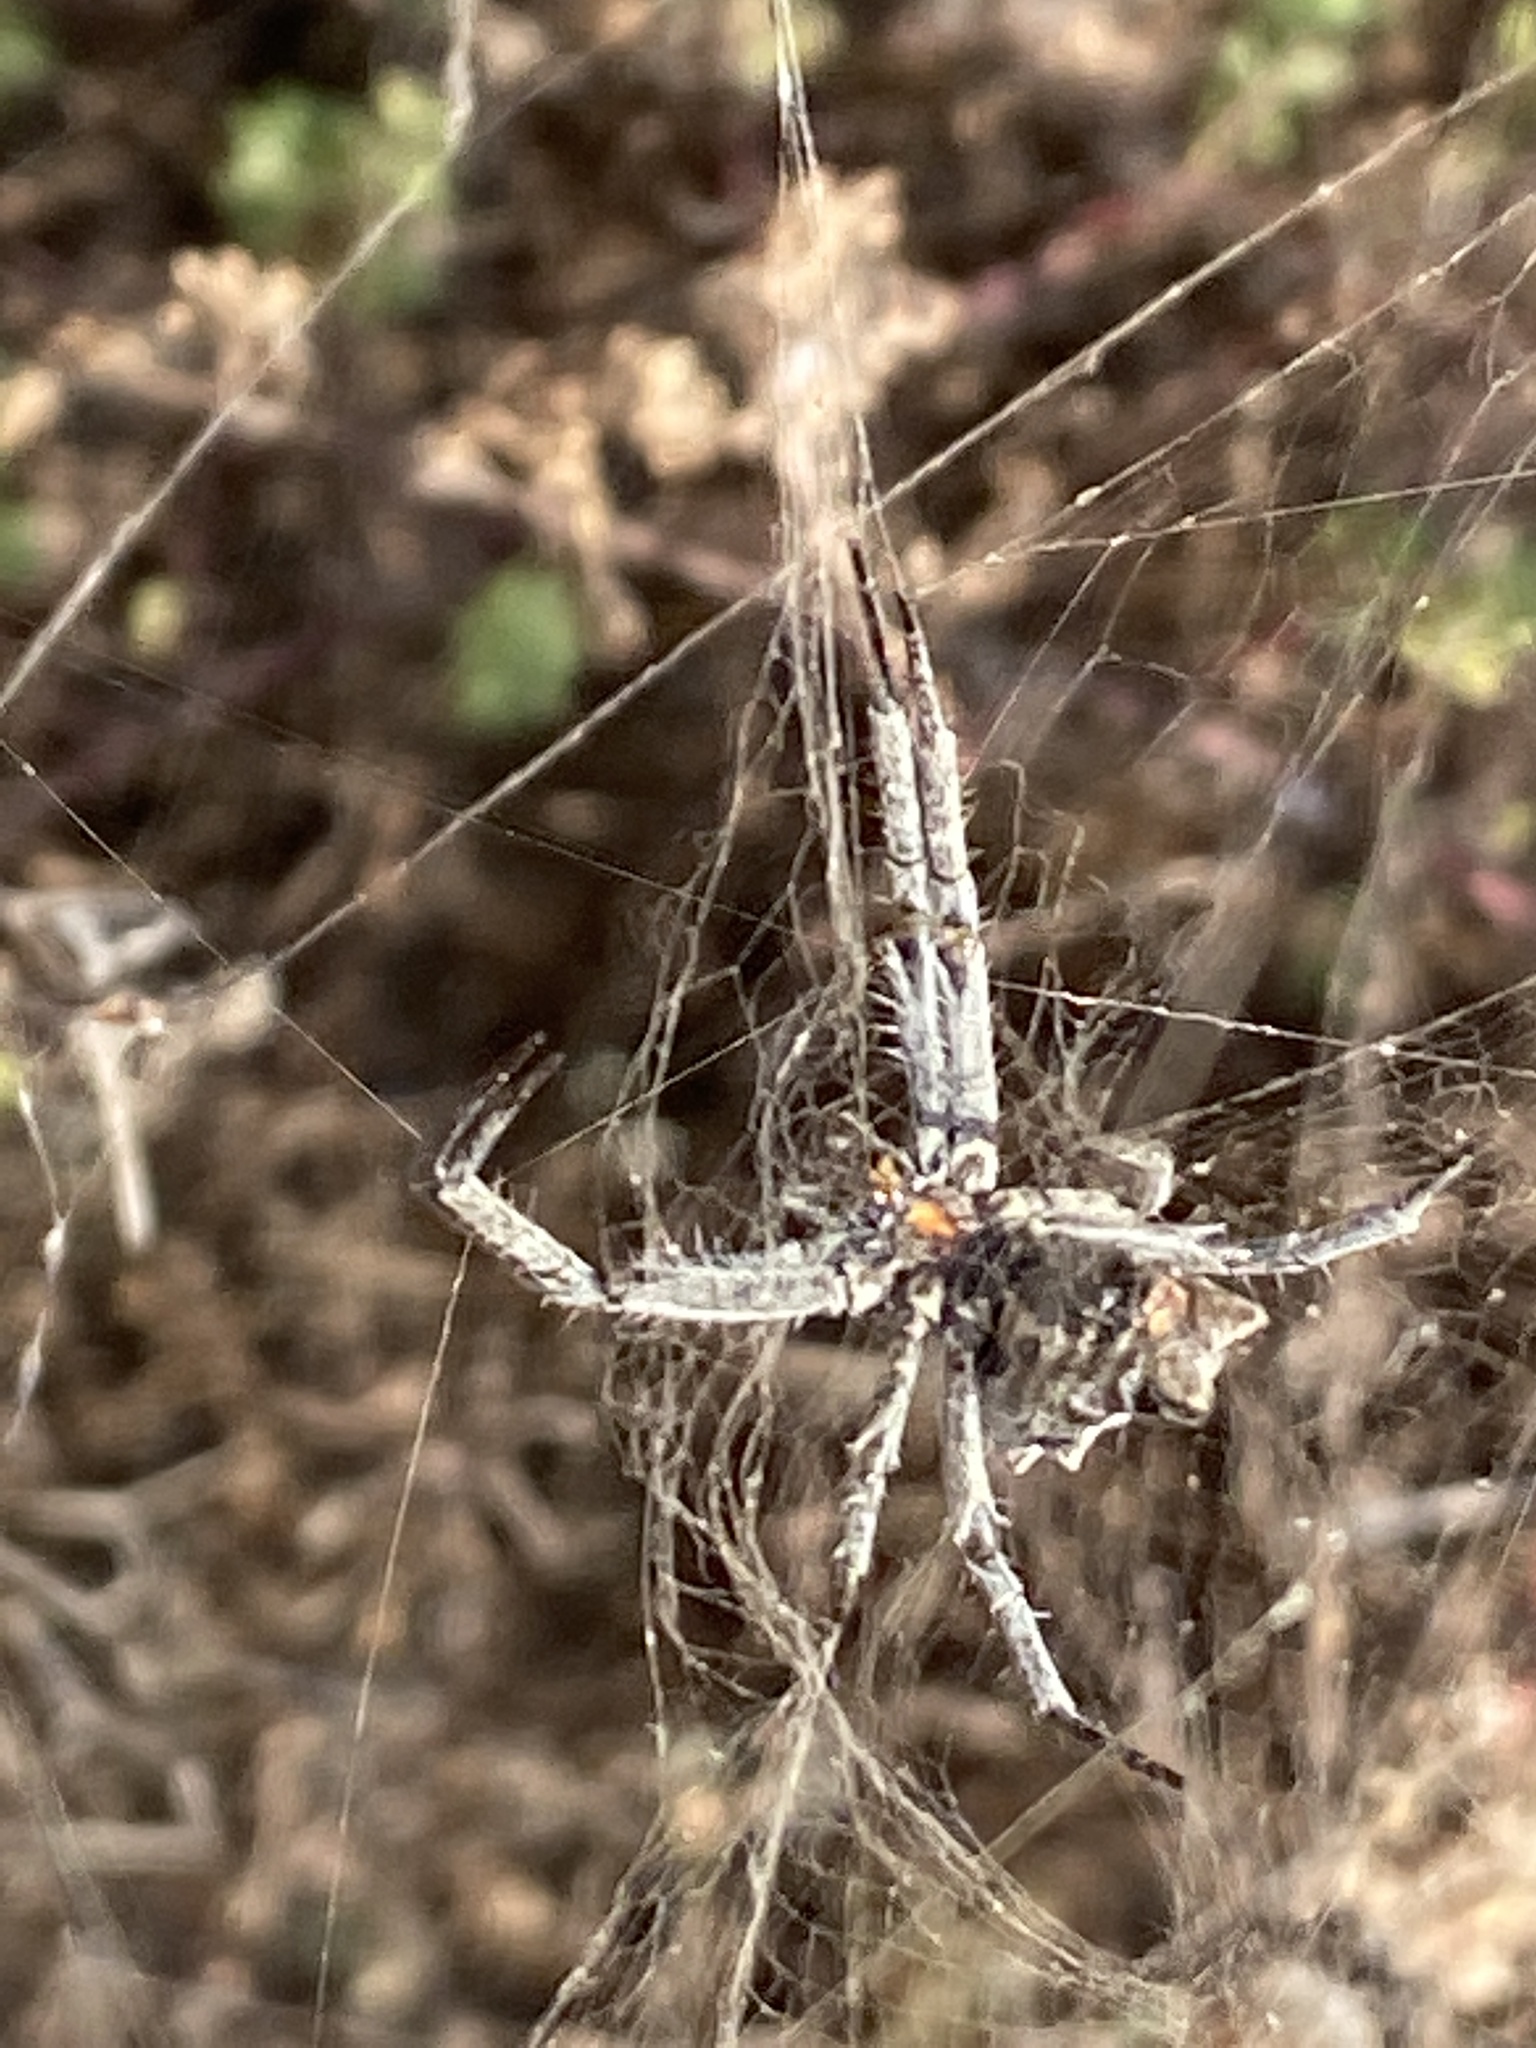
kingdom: Animalia
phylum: Arthropoda
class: Arachnida
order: Araneae
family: Araneidae
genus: Cyrtophora
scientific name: Cyrtophora citricola
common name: Orb weavers
